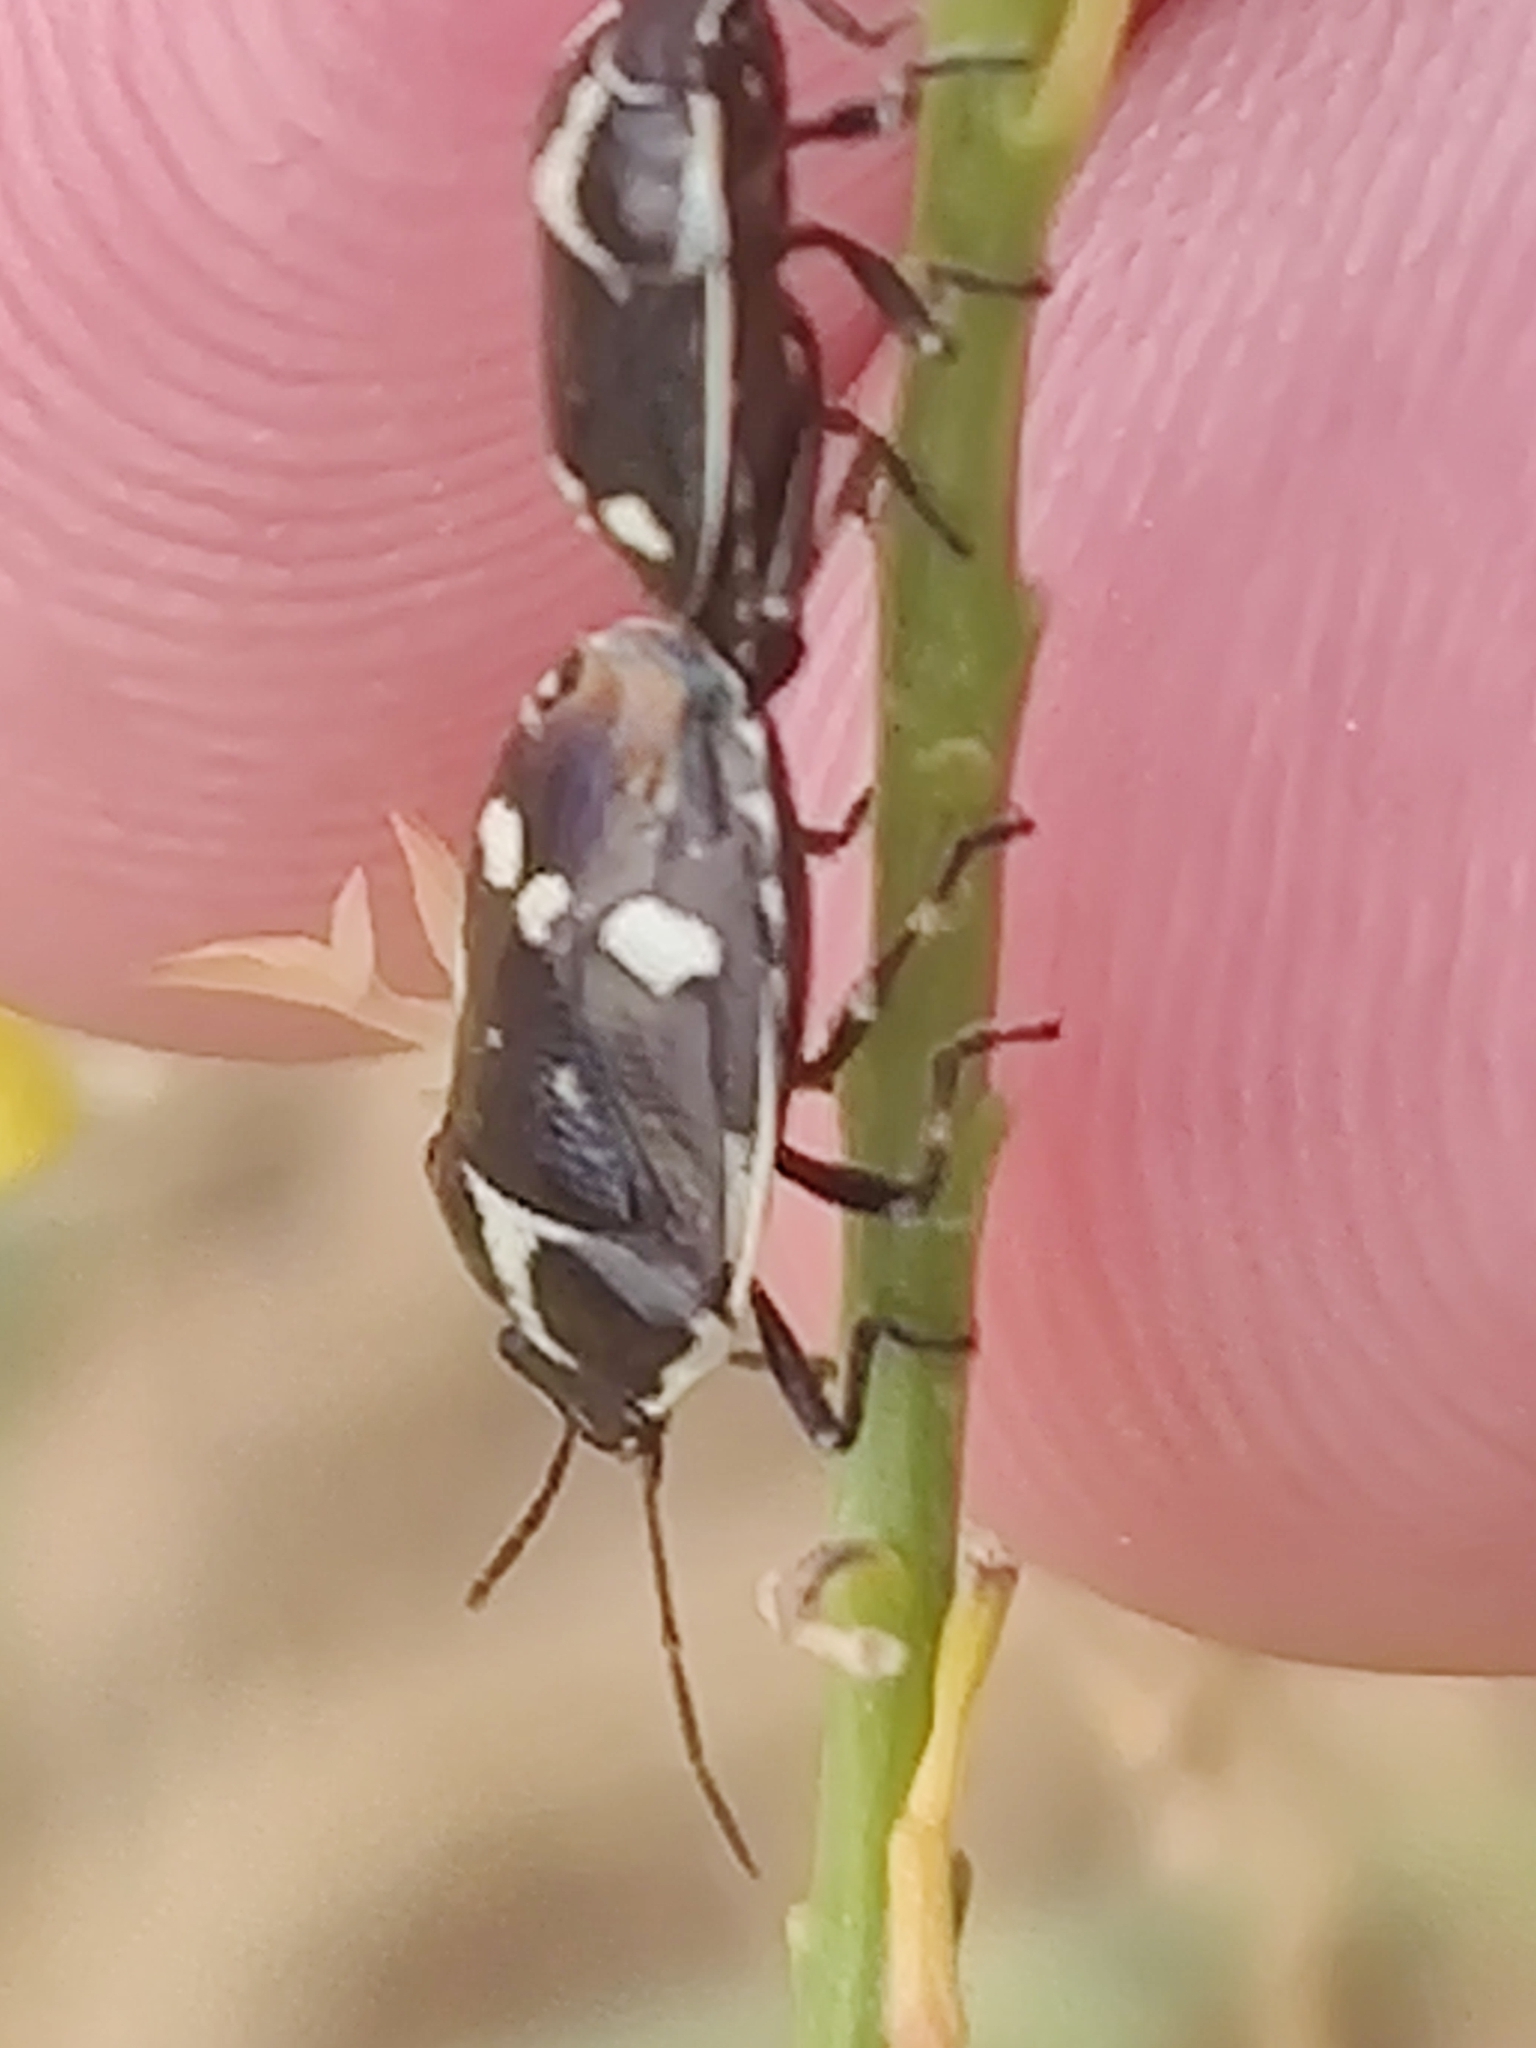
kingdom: Animalia
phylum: Arthropoda
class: Insecta
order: Hemiptera
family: Pentatomidae
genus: Eurydema
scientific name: Eurydema oleracea
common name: Cabbage bug
